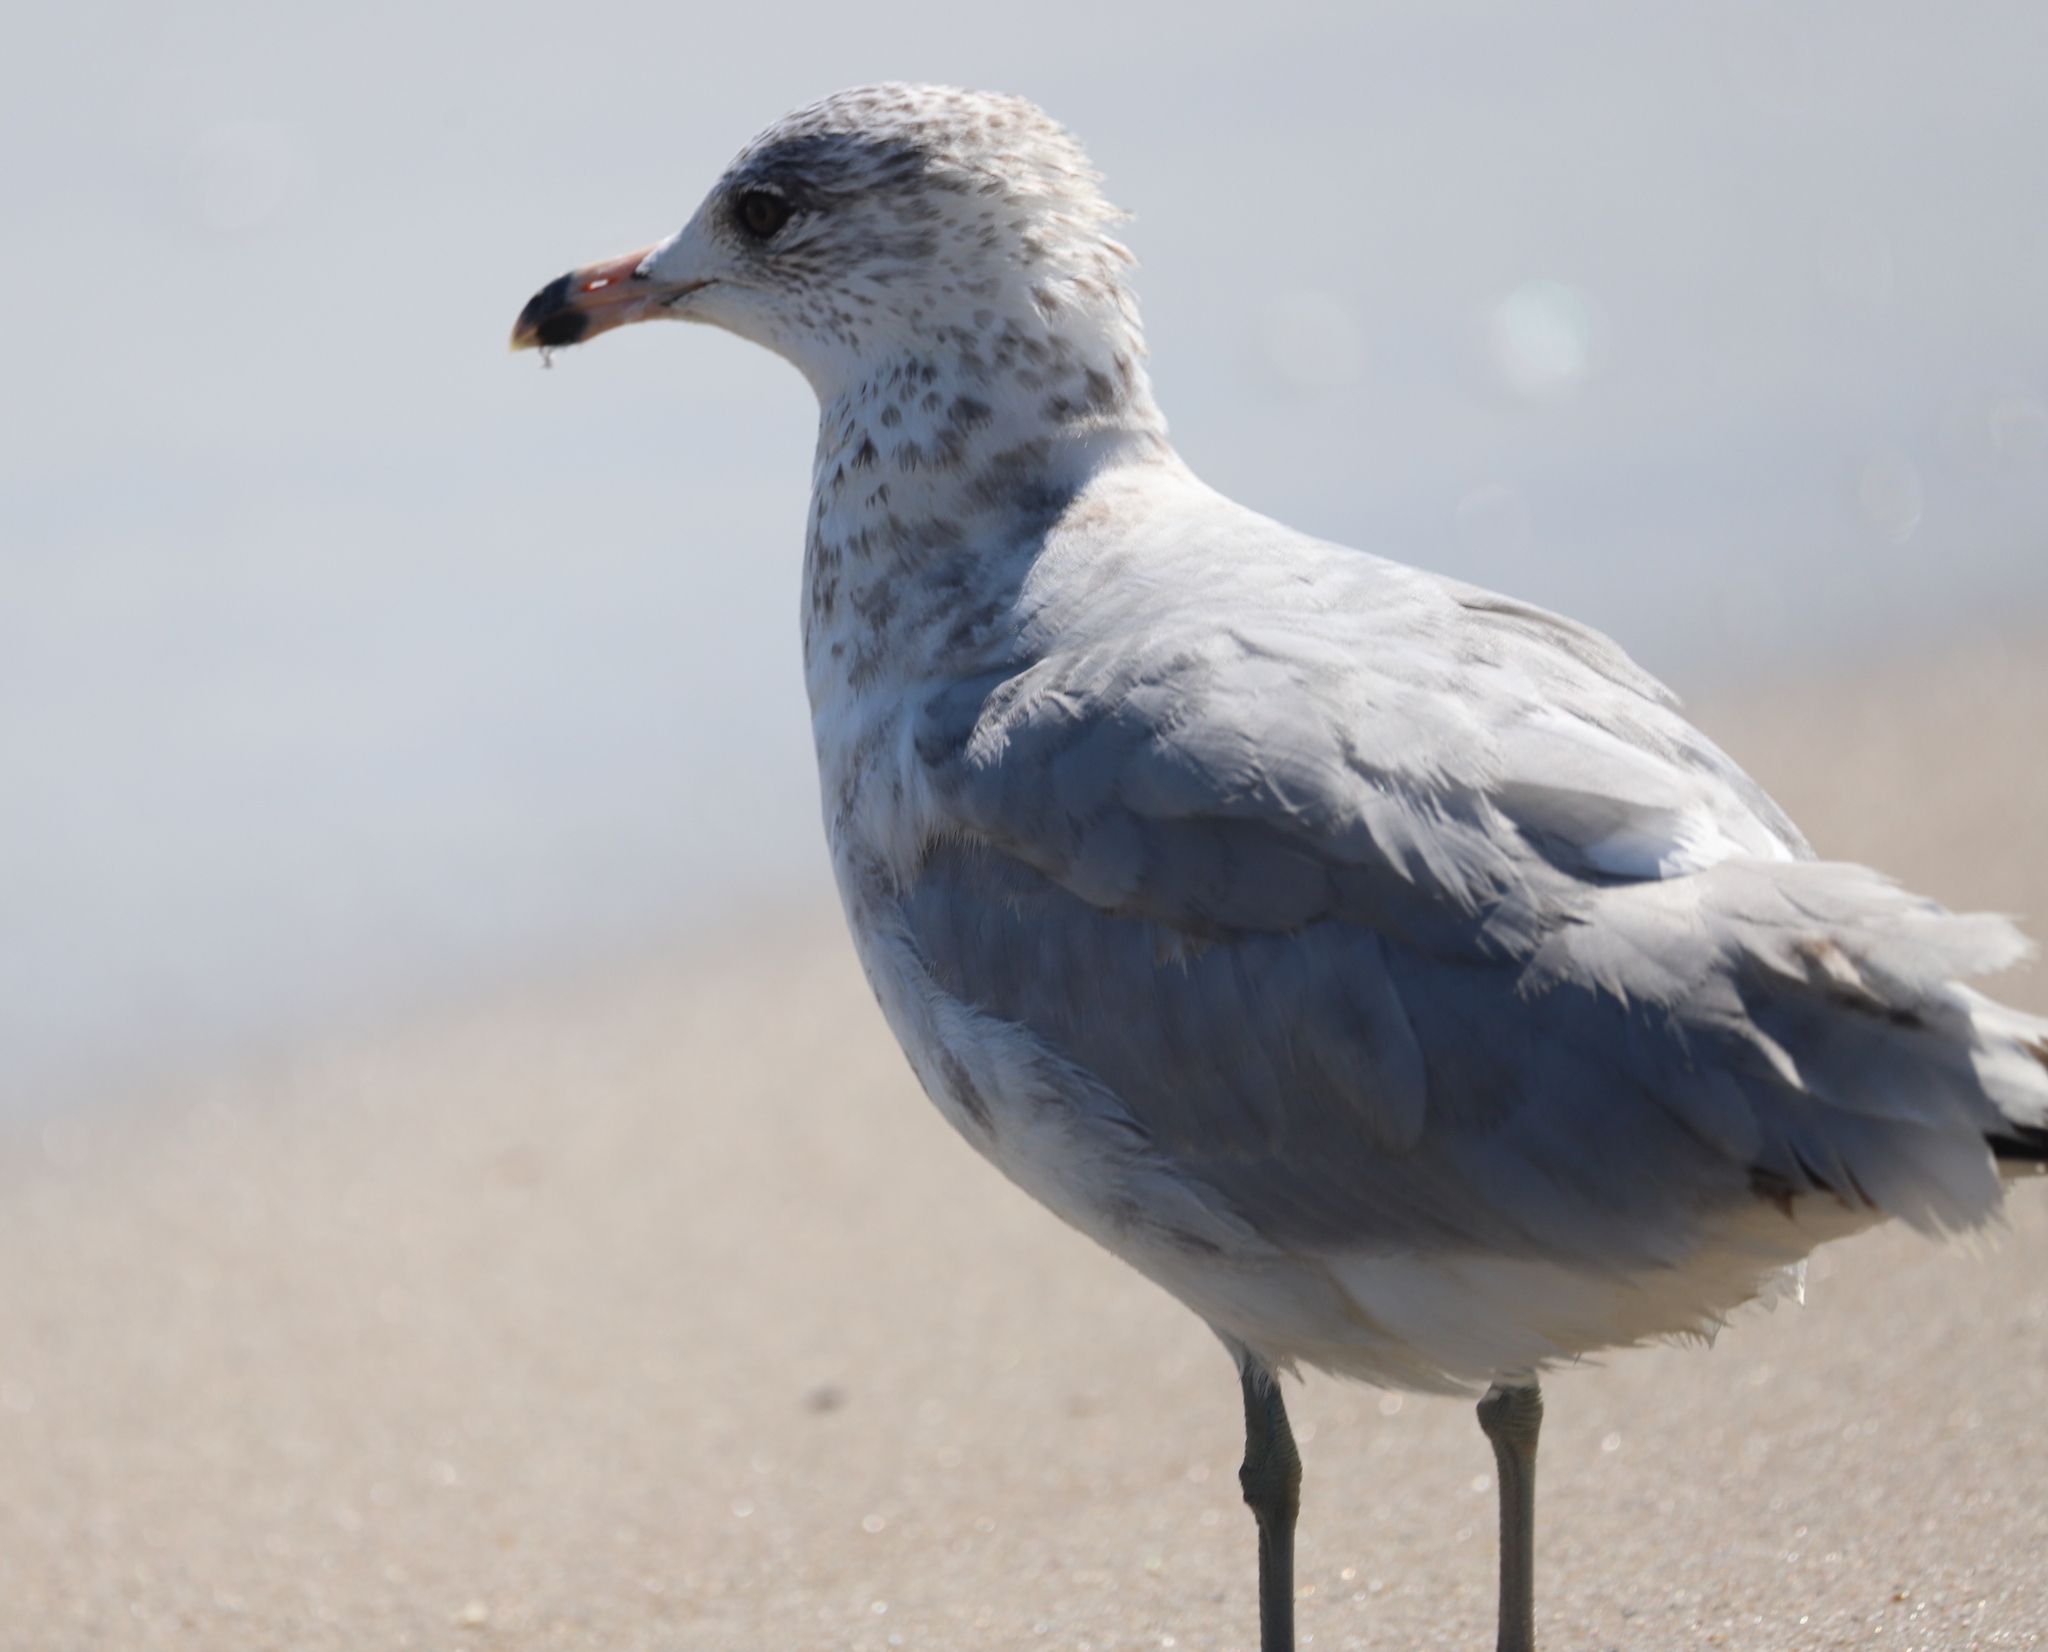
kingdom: Animalia
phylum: Chordata
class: Aves
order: Charadriiformes
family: Laridae
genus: Larus
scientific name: Larus delawarensis
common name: Ring-billed gull
